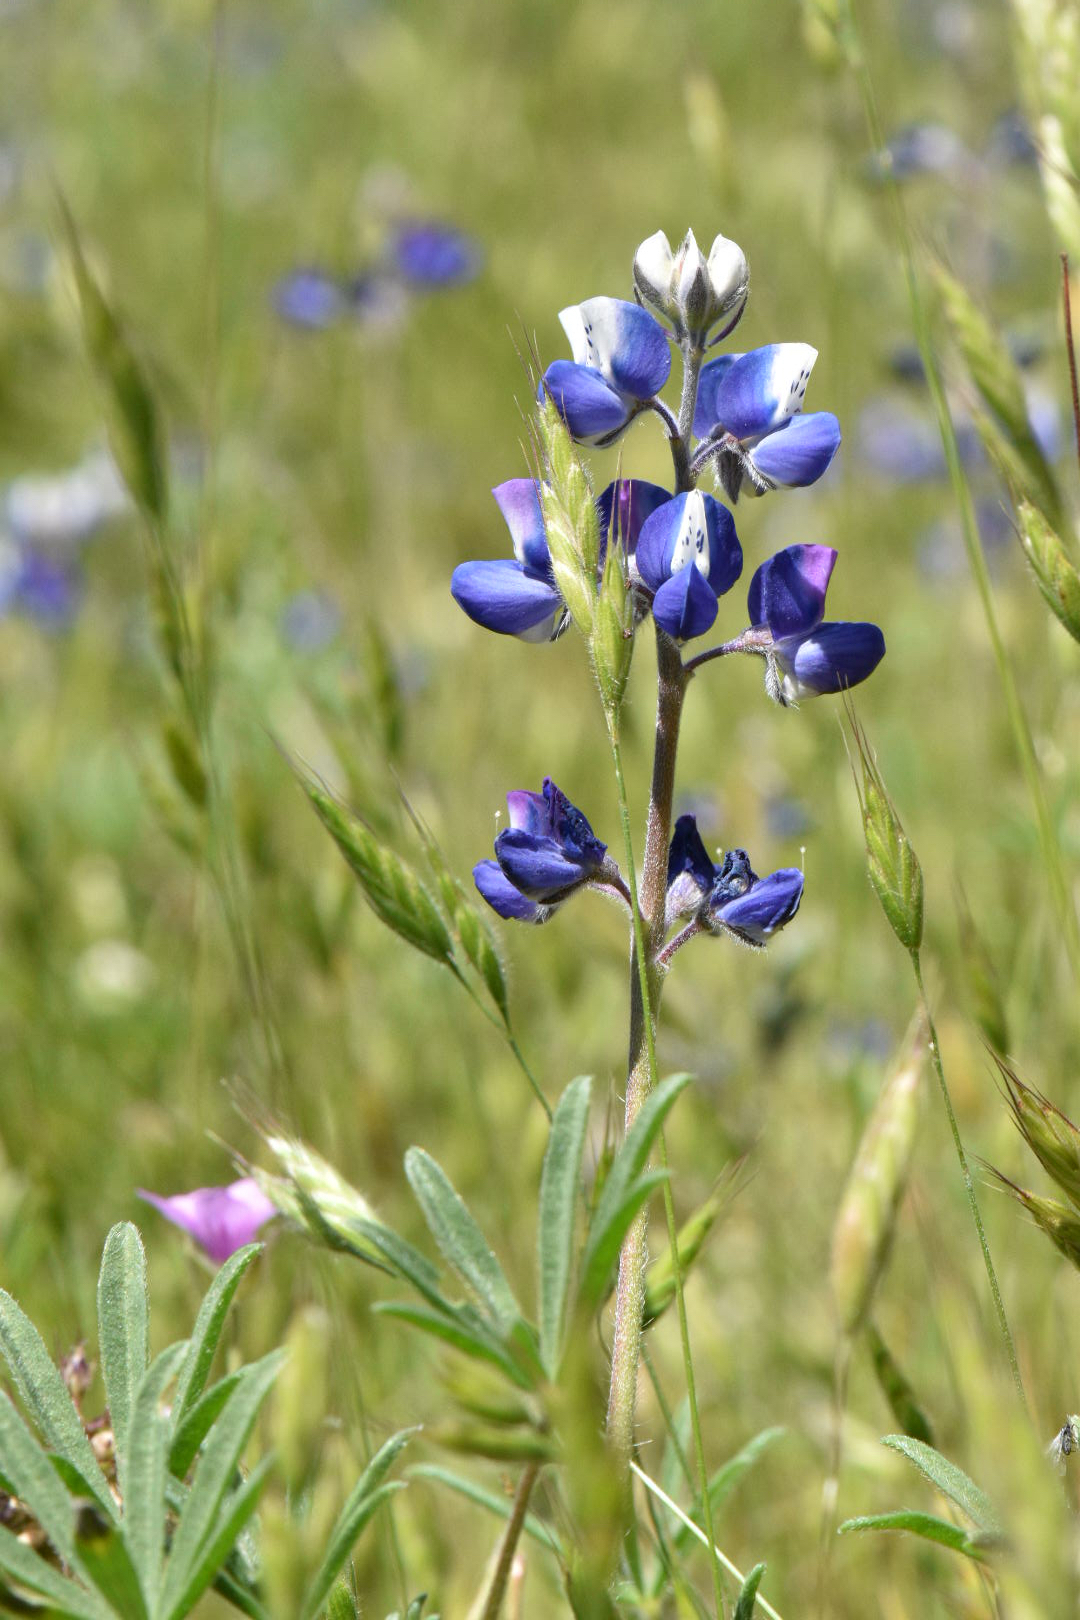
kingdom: Plantae
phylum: Tracheophyta
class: Magnoliopsida
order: Fabales
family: Fabaceae
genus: Lupinus
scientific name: Lupinus bicolor
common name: Miniature lupine
